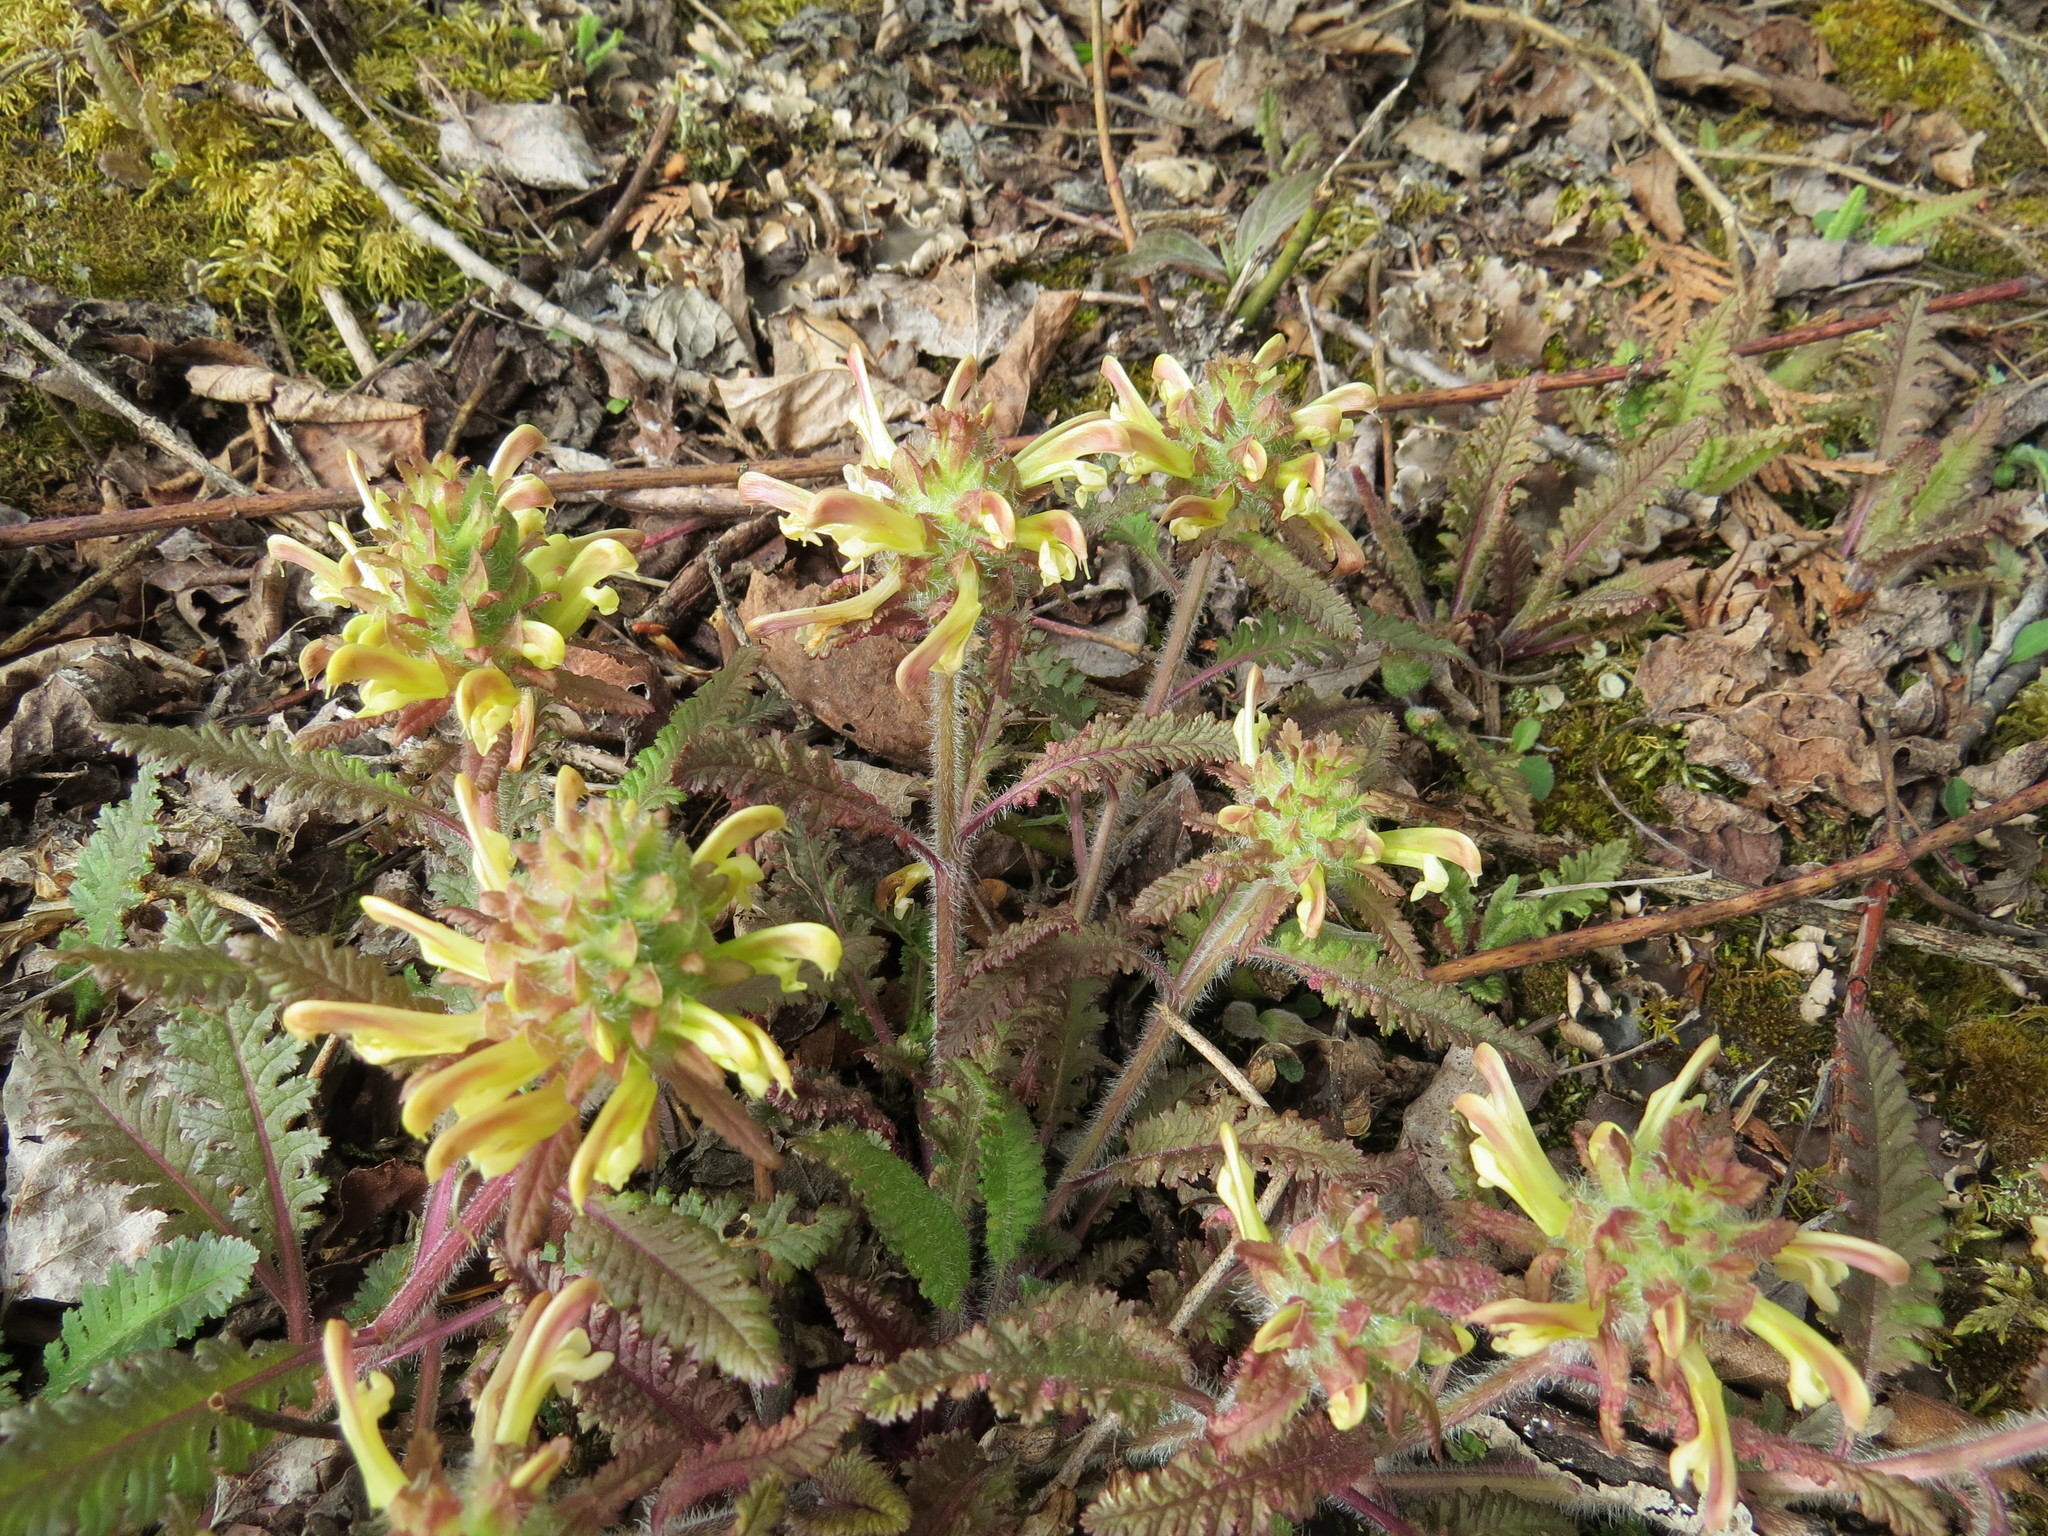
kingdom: Plantae
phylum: Tracheophyta
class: Magnoliopsida
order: Lamiales
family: Orobanchaceae
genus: Pedicularis
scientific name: Pedicularis canadensis
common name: Early lousewort
